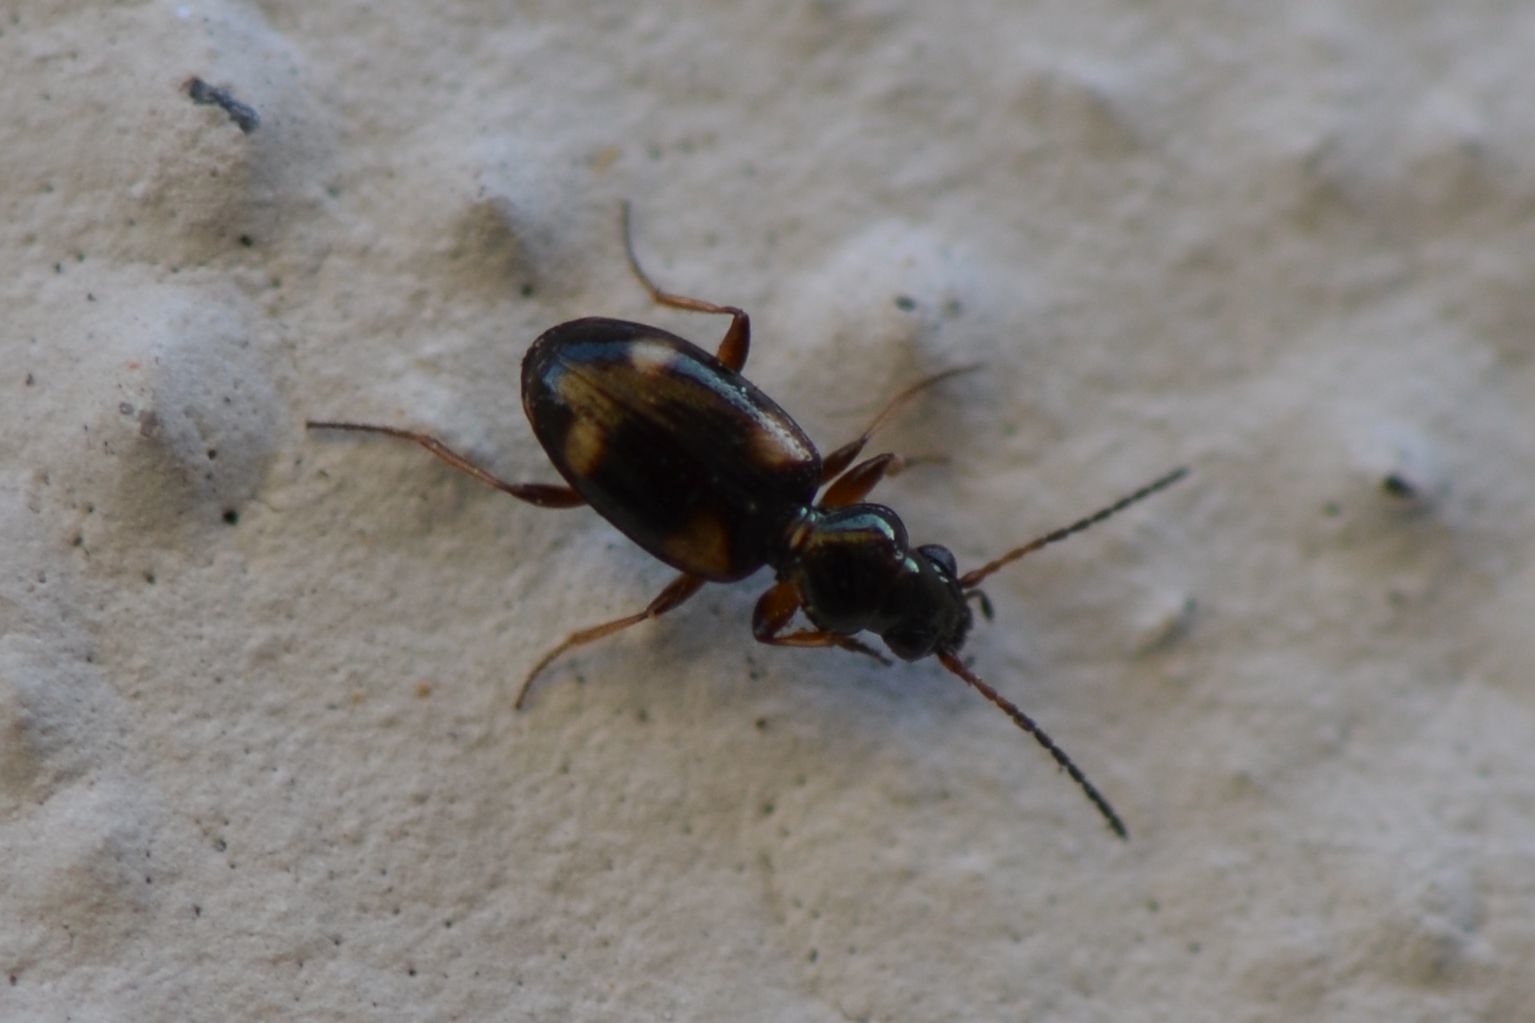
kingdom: Animalia
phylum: Arthropoda
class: Insecta
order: Coleoptera
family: Carabidae
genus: Bembidion
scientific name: Bembidion quadrimaculatum
